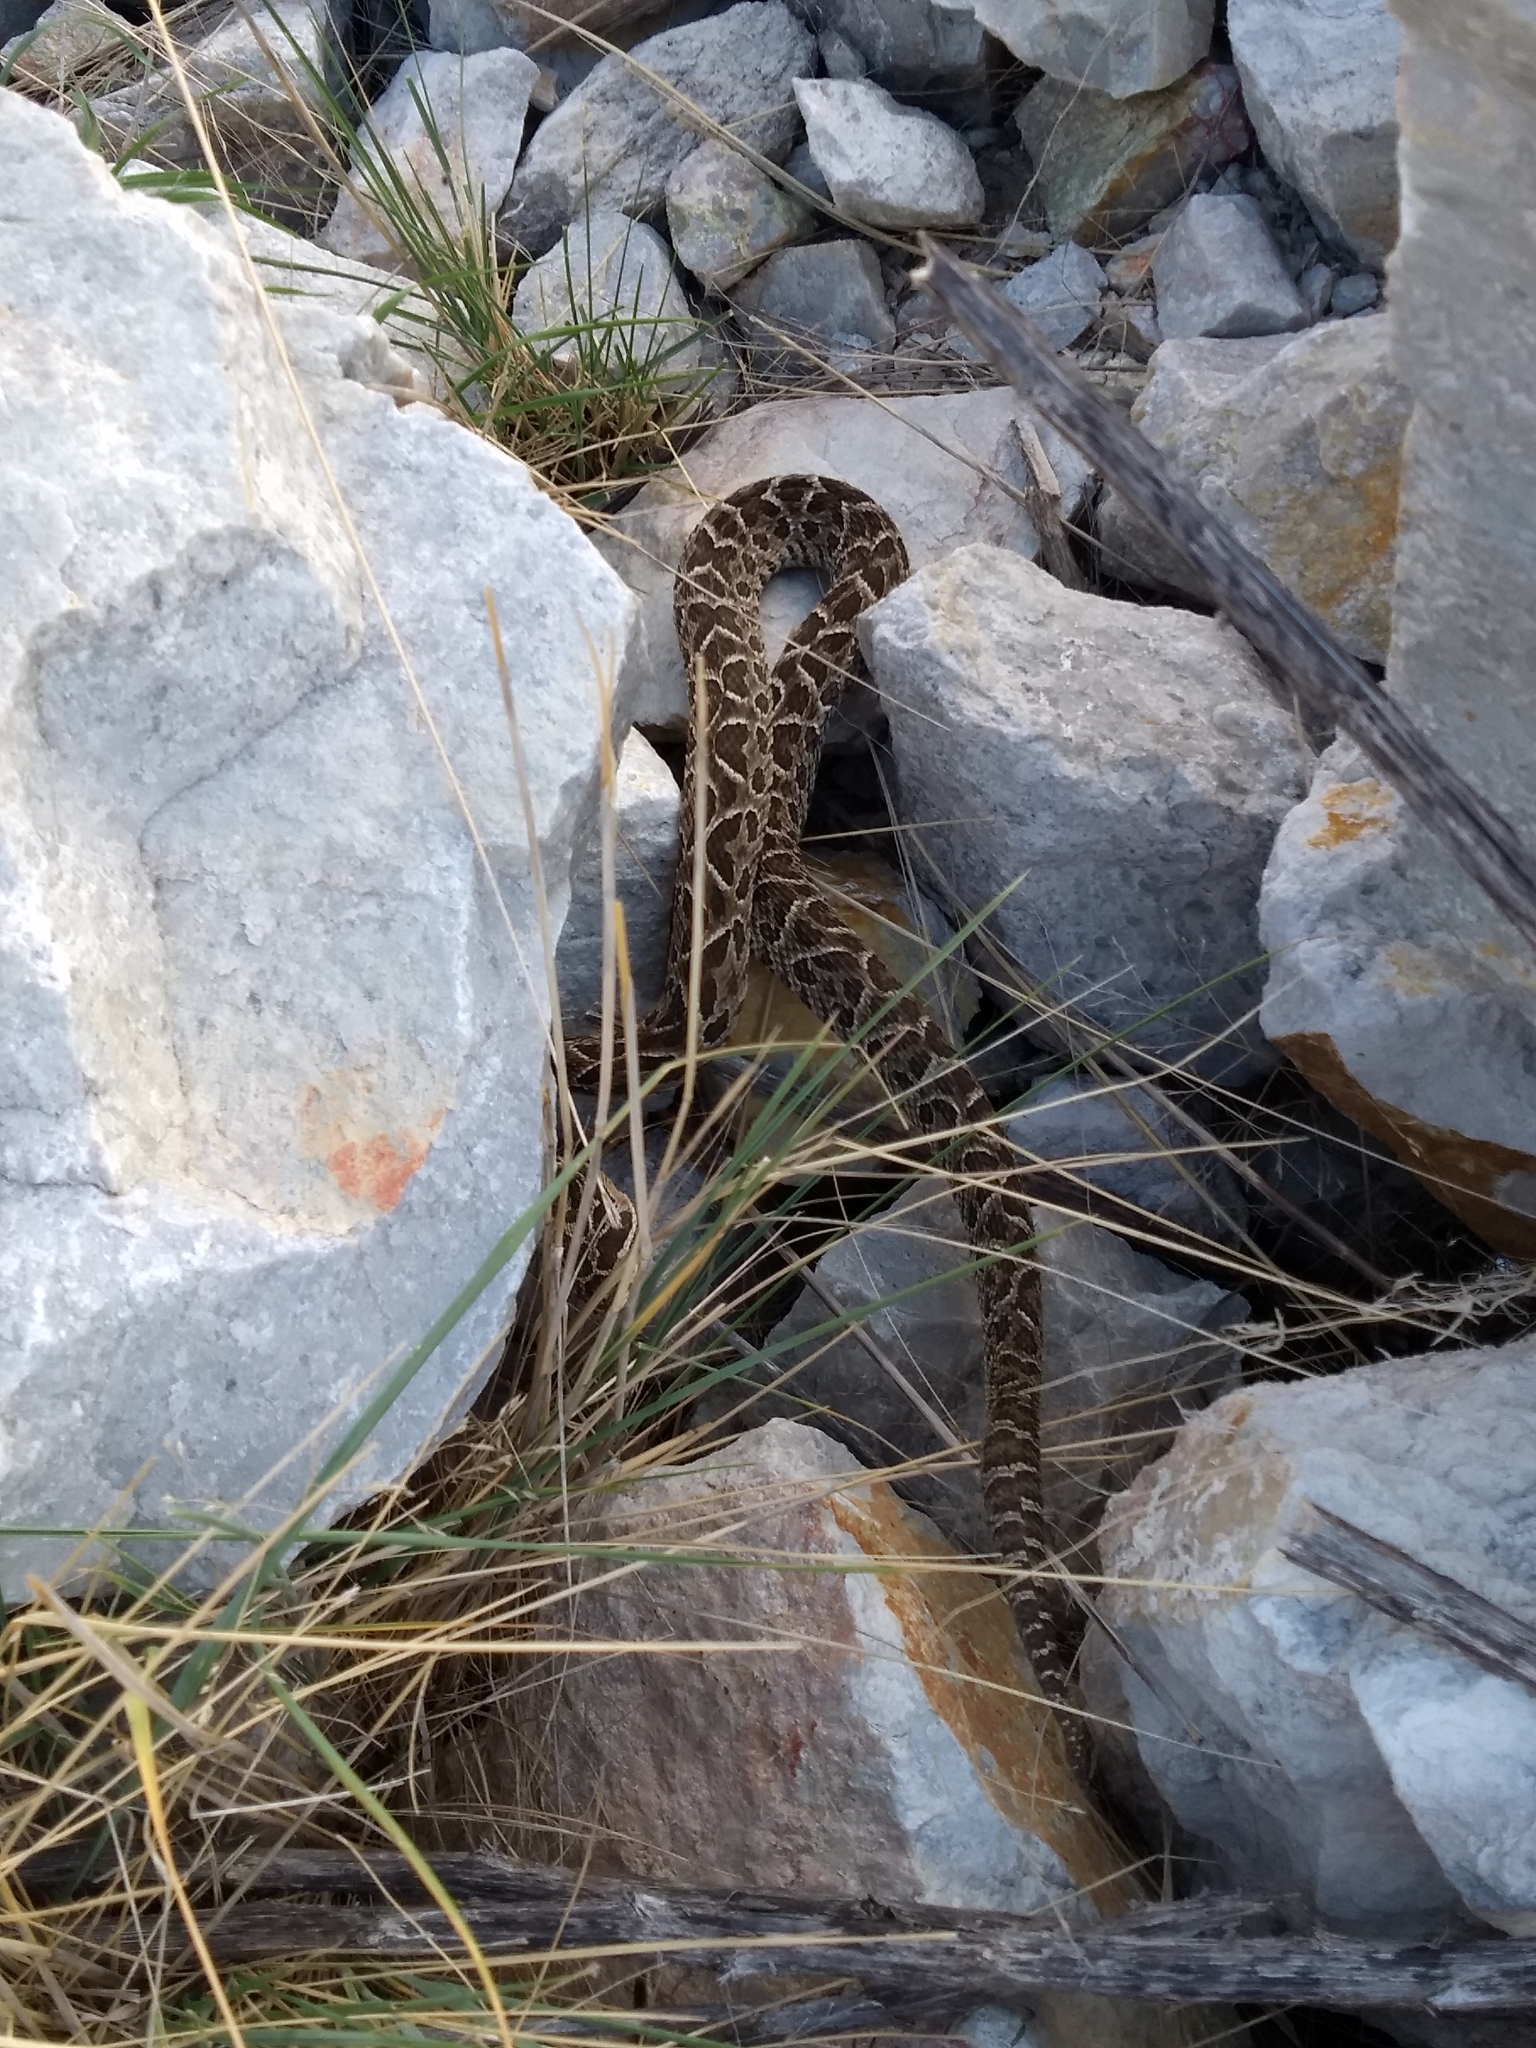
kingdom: Animalia
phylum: Chordata
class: Squamata
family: Viperidae
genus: Bothrops
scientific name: Bothrops alternatus
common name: Urutu
